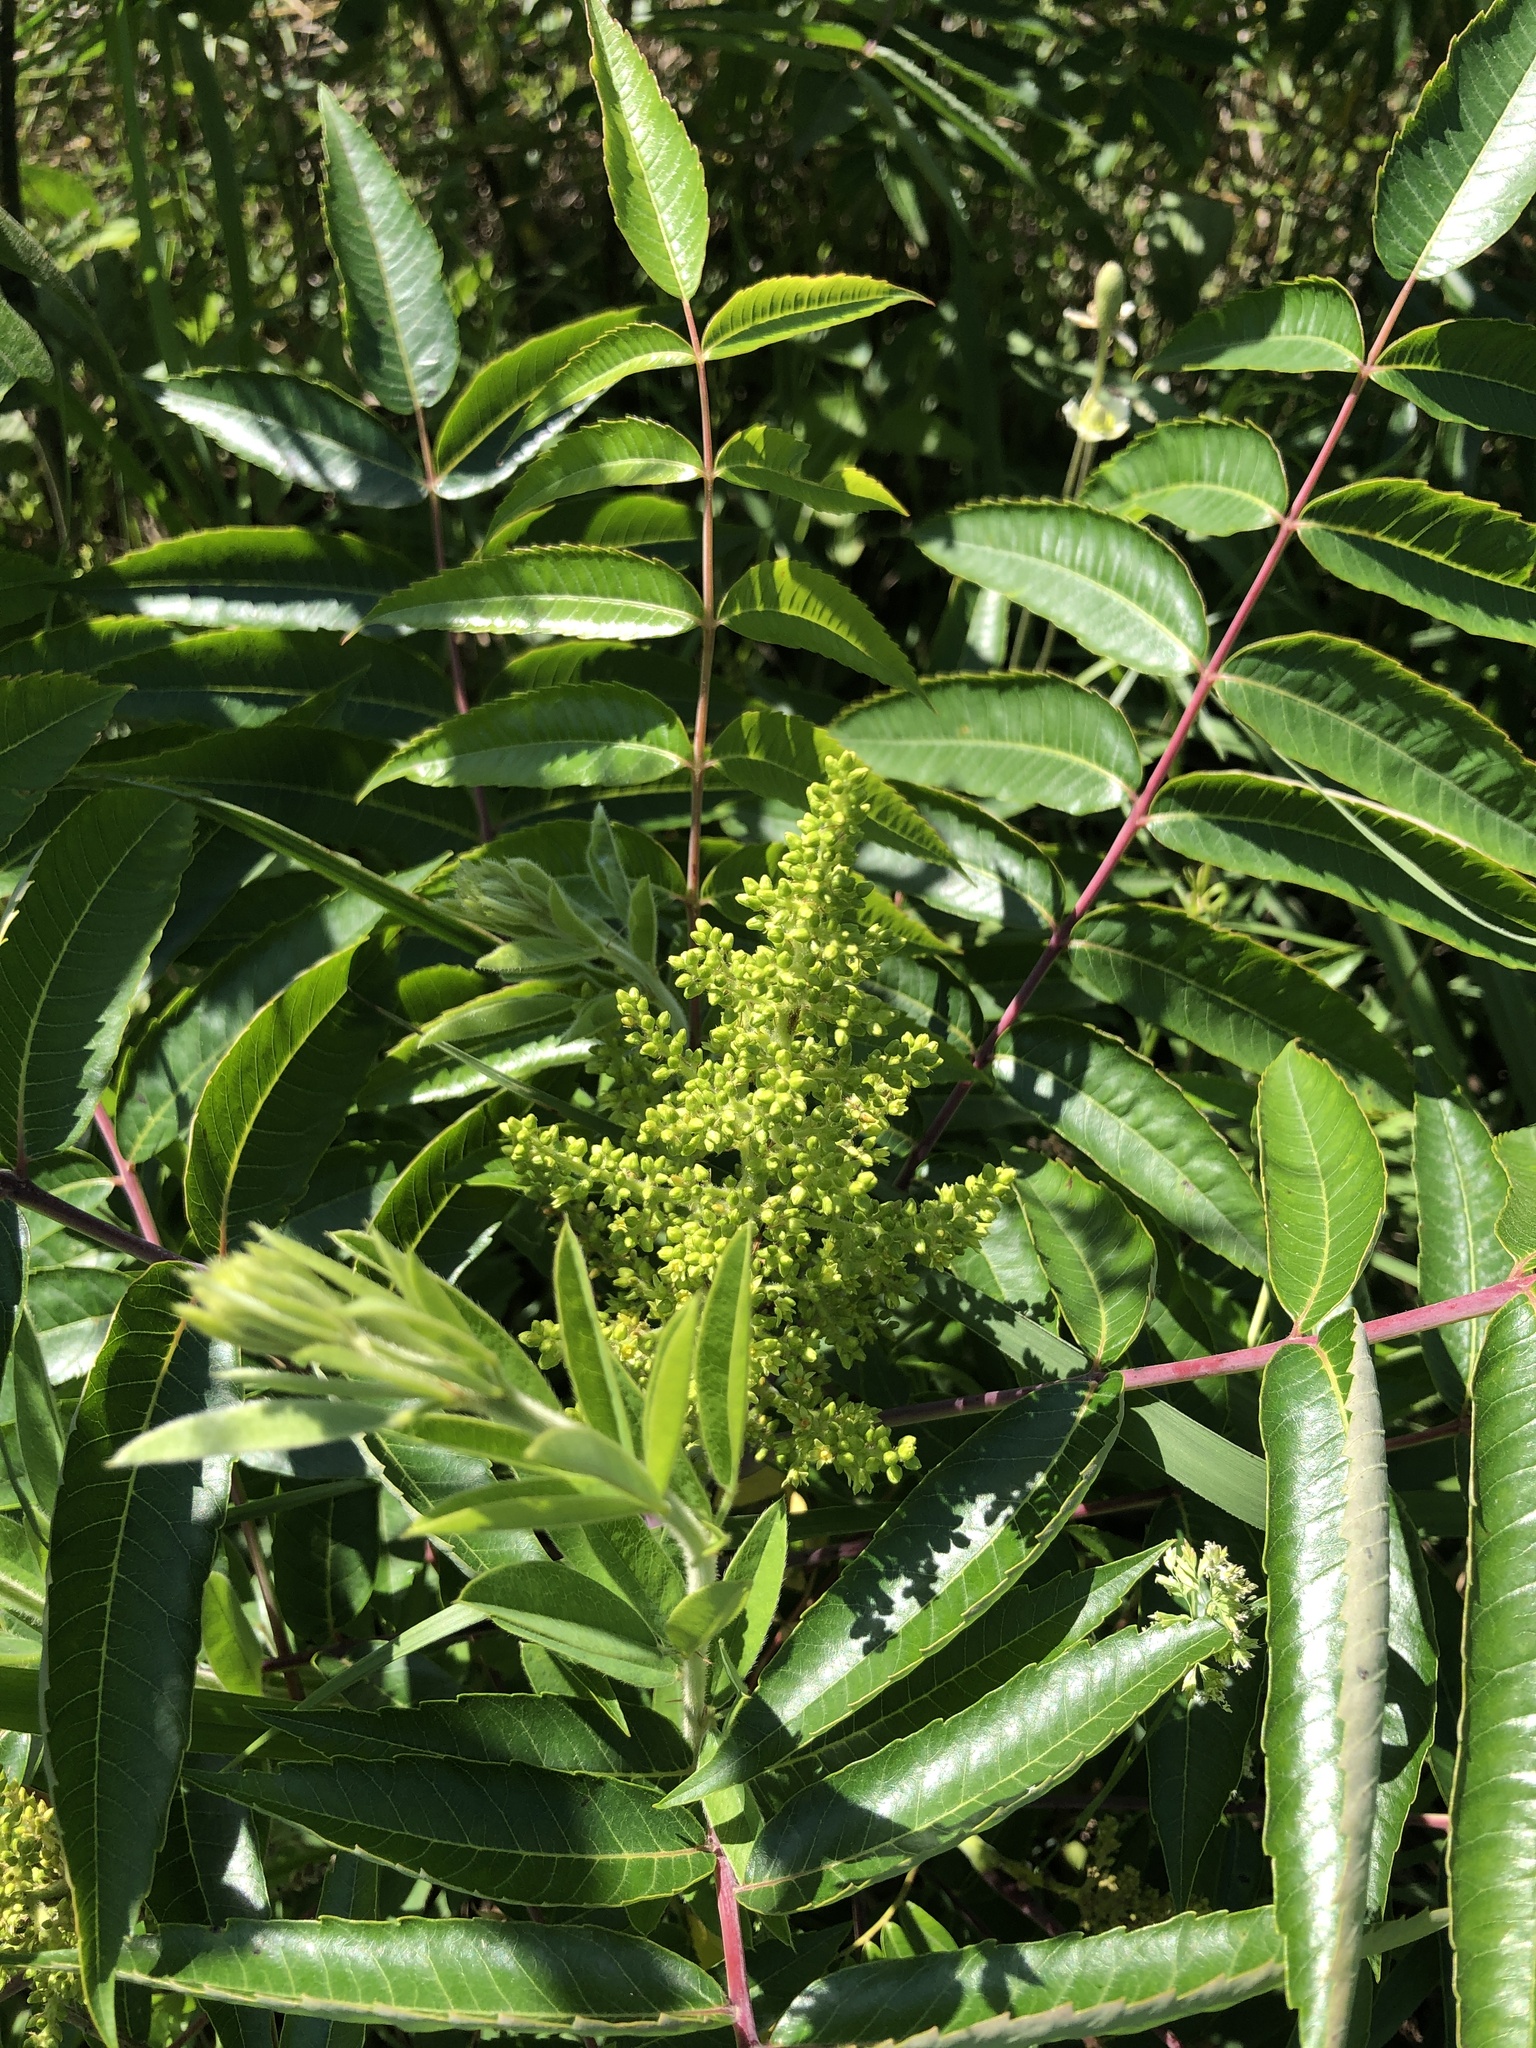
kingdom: Plantae
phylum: Tracheophyta
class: Magnoliopsida
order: Sapindales
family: Anacardiaceae
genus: Rhus
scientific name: Rhus glabra
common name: Scarlet sumac
